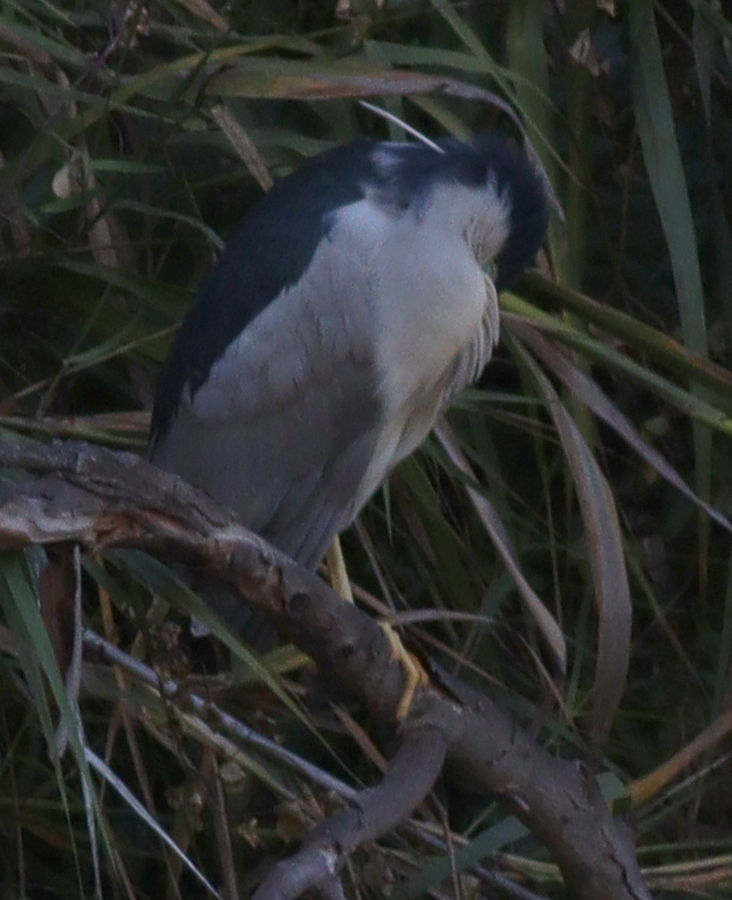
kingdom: Animalia
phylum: Chordata
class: Aves
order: Pelecaniformes
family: Ardeidae
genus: Nycticorax
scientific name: Nycticorax nycticorax
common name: Black-crowned night heron
